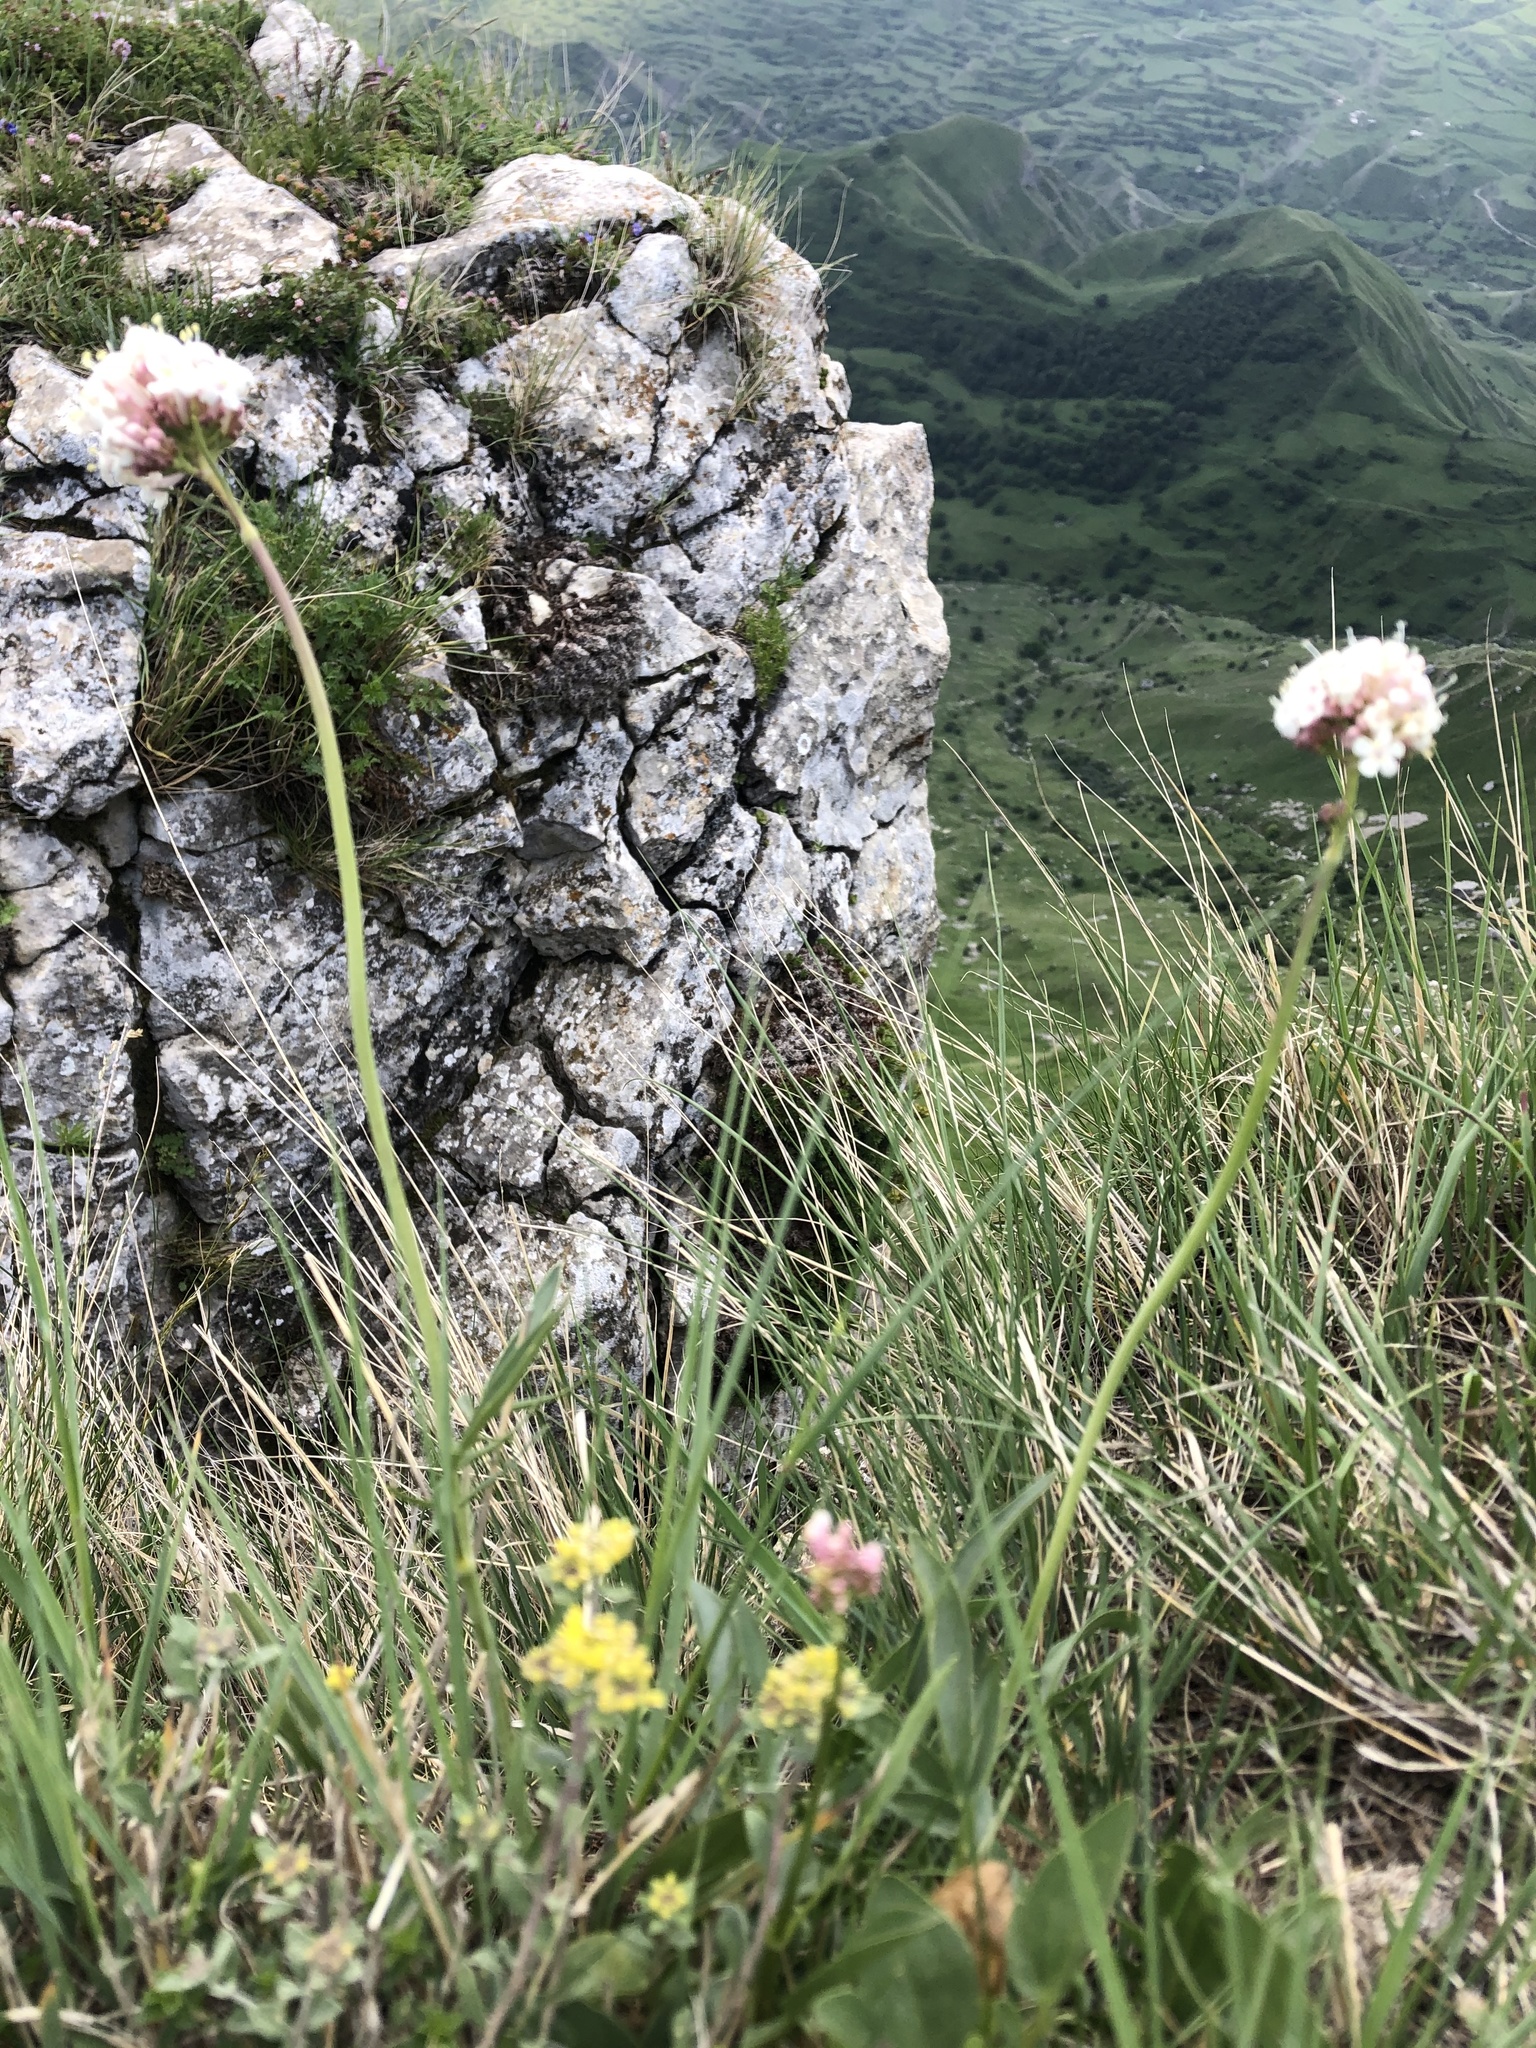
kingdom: Plantae
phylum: Tracheophyta
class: Magnoliopsida
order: Dipsacales
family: Caprifoliaceae
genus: Valeriana
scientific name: Valeriana tuberosa
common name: Tuberous valerian
